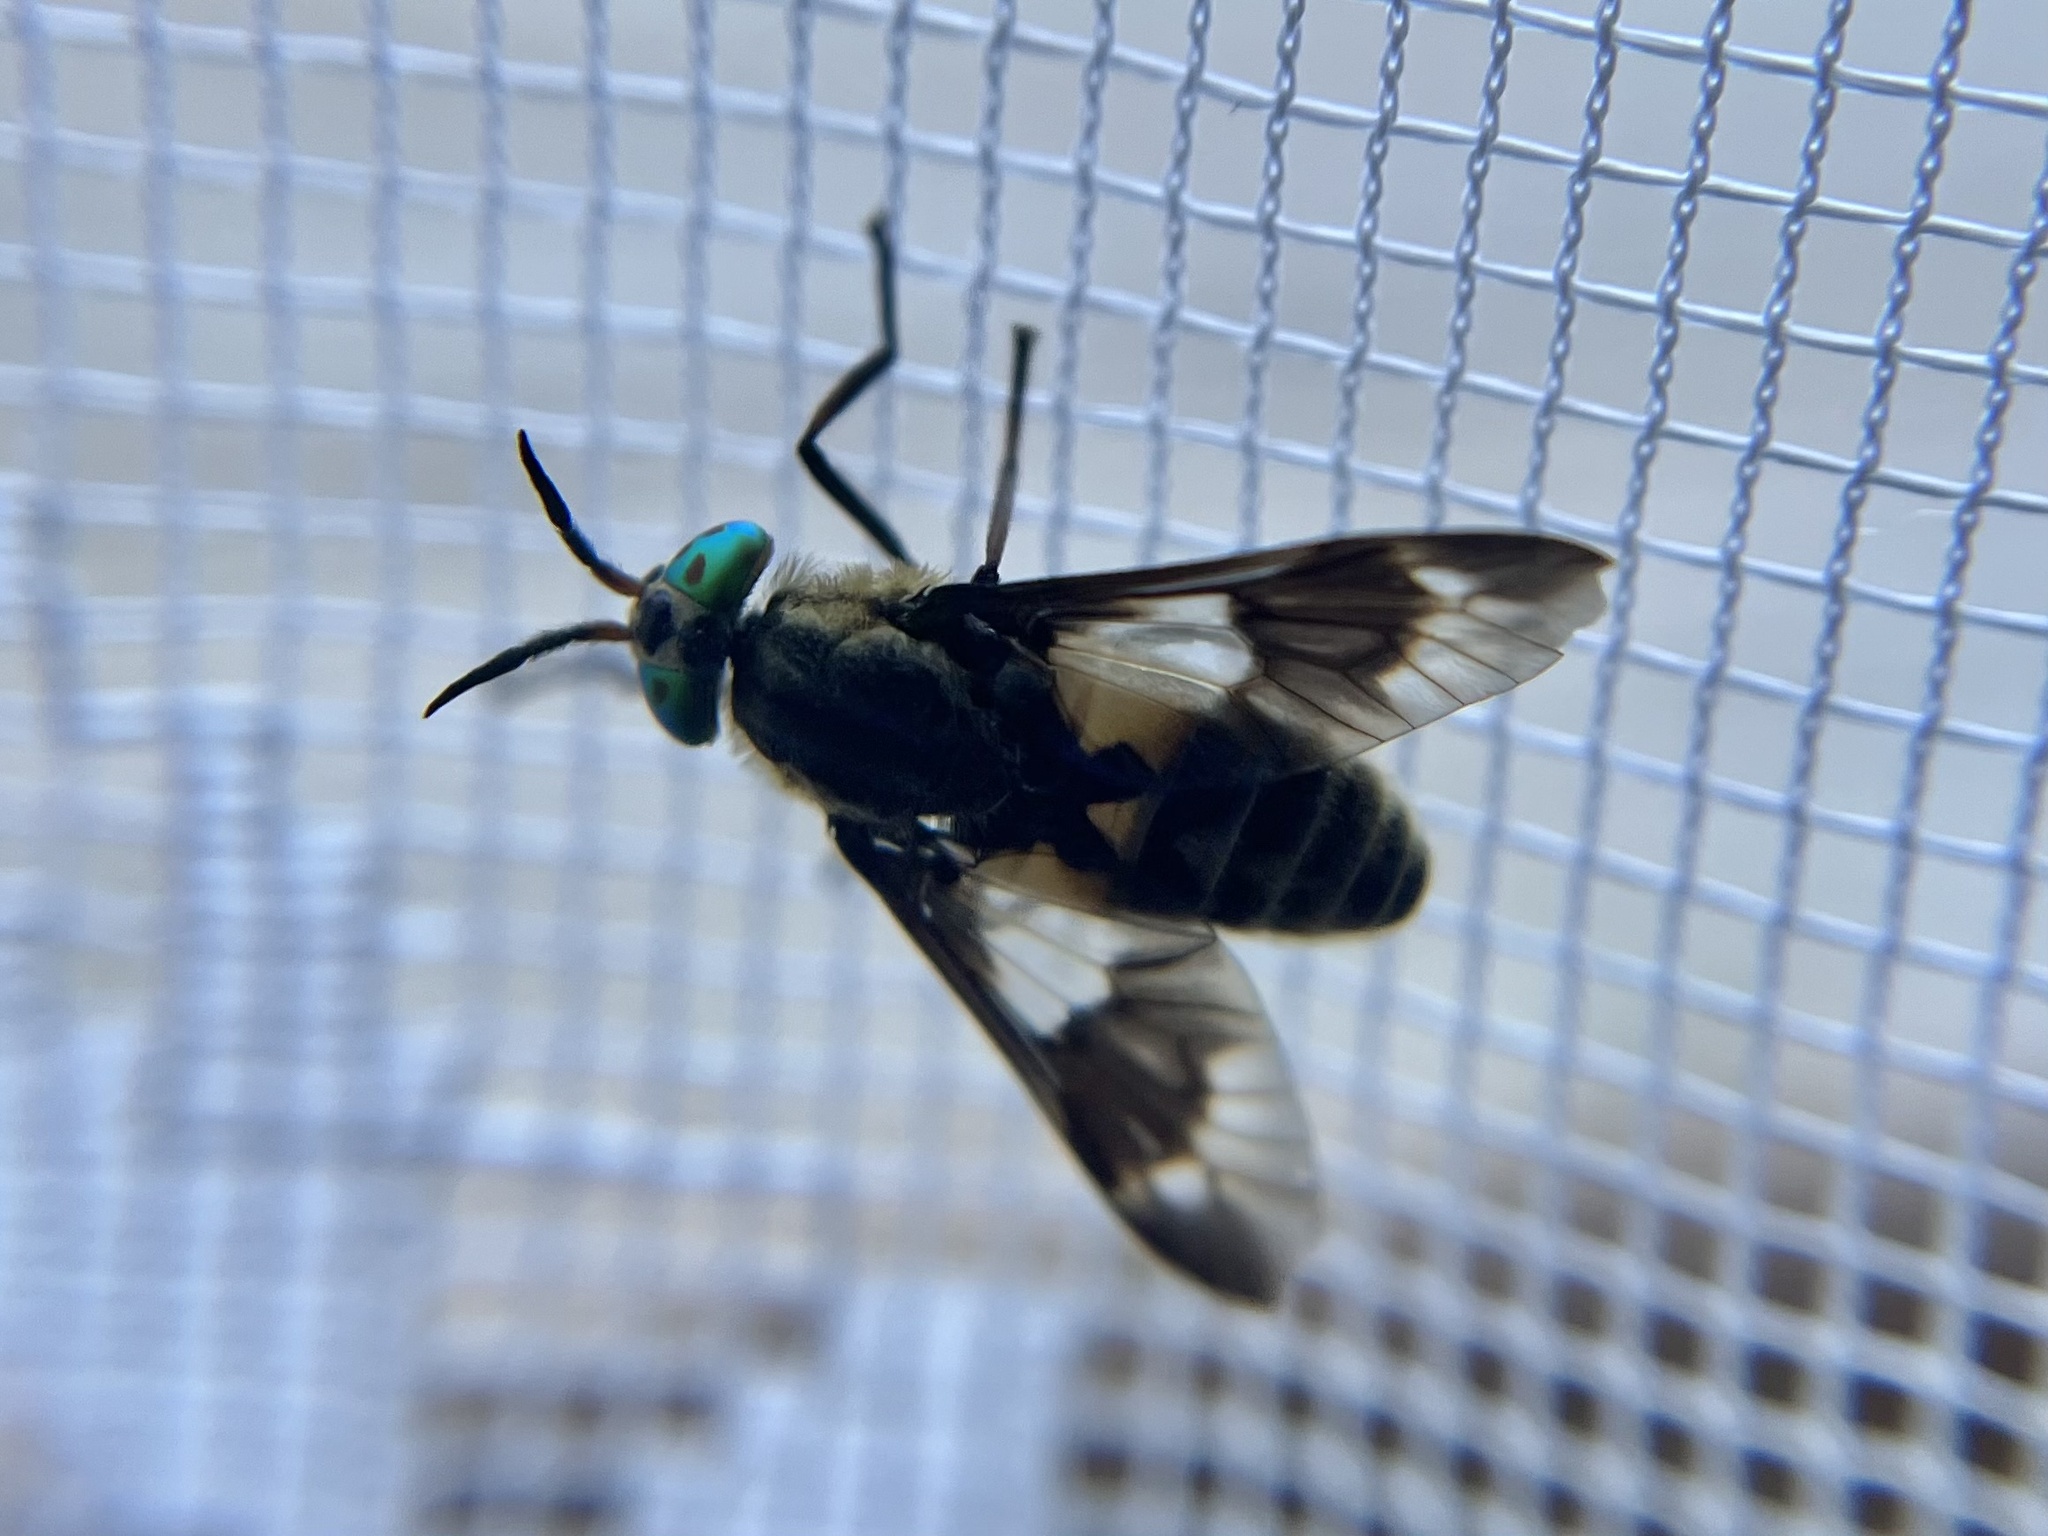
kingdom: Animalia
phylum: Arthropoda
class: Insecta
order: Diptera
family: Tabanidae
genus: Chrysops
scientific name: Chrysops relictus
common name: Twin-lobed deerfly
